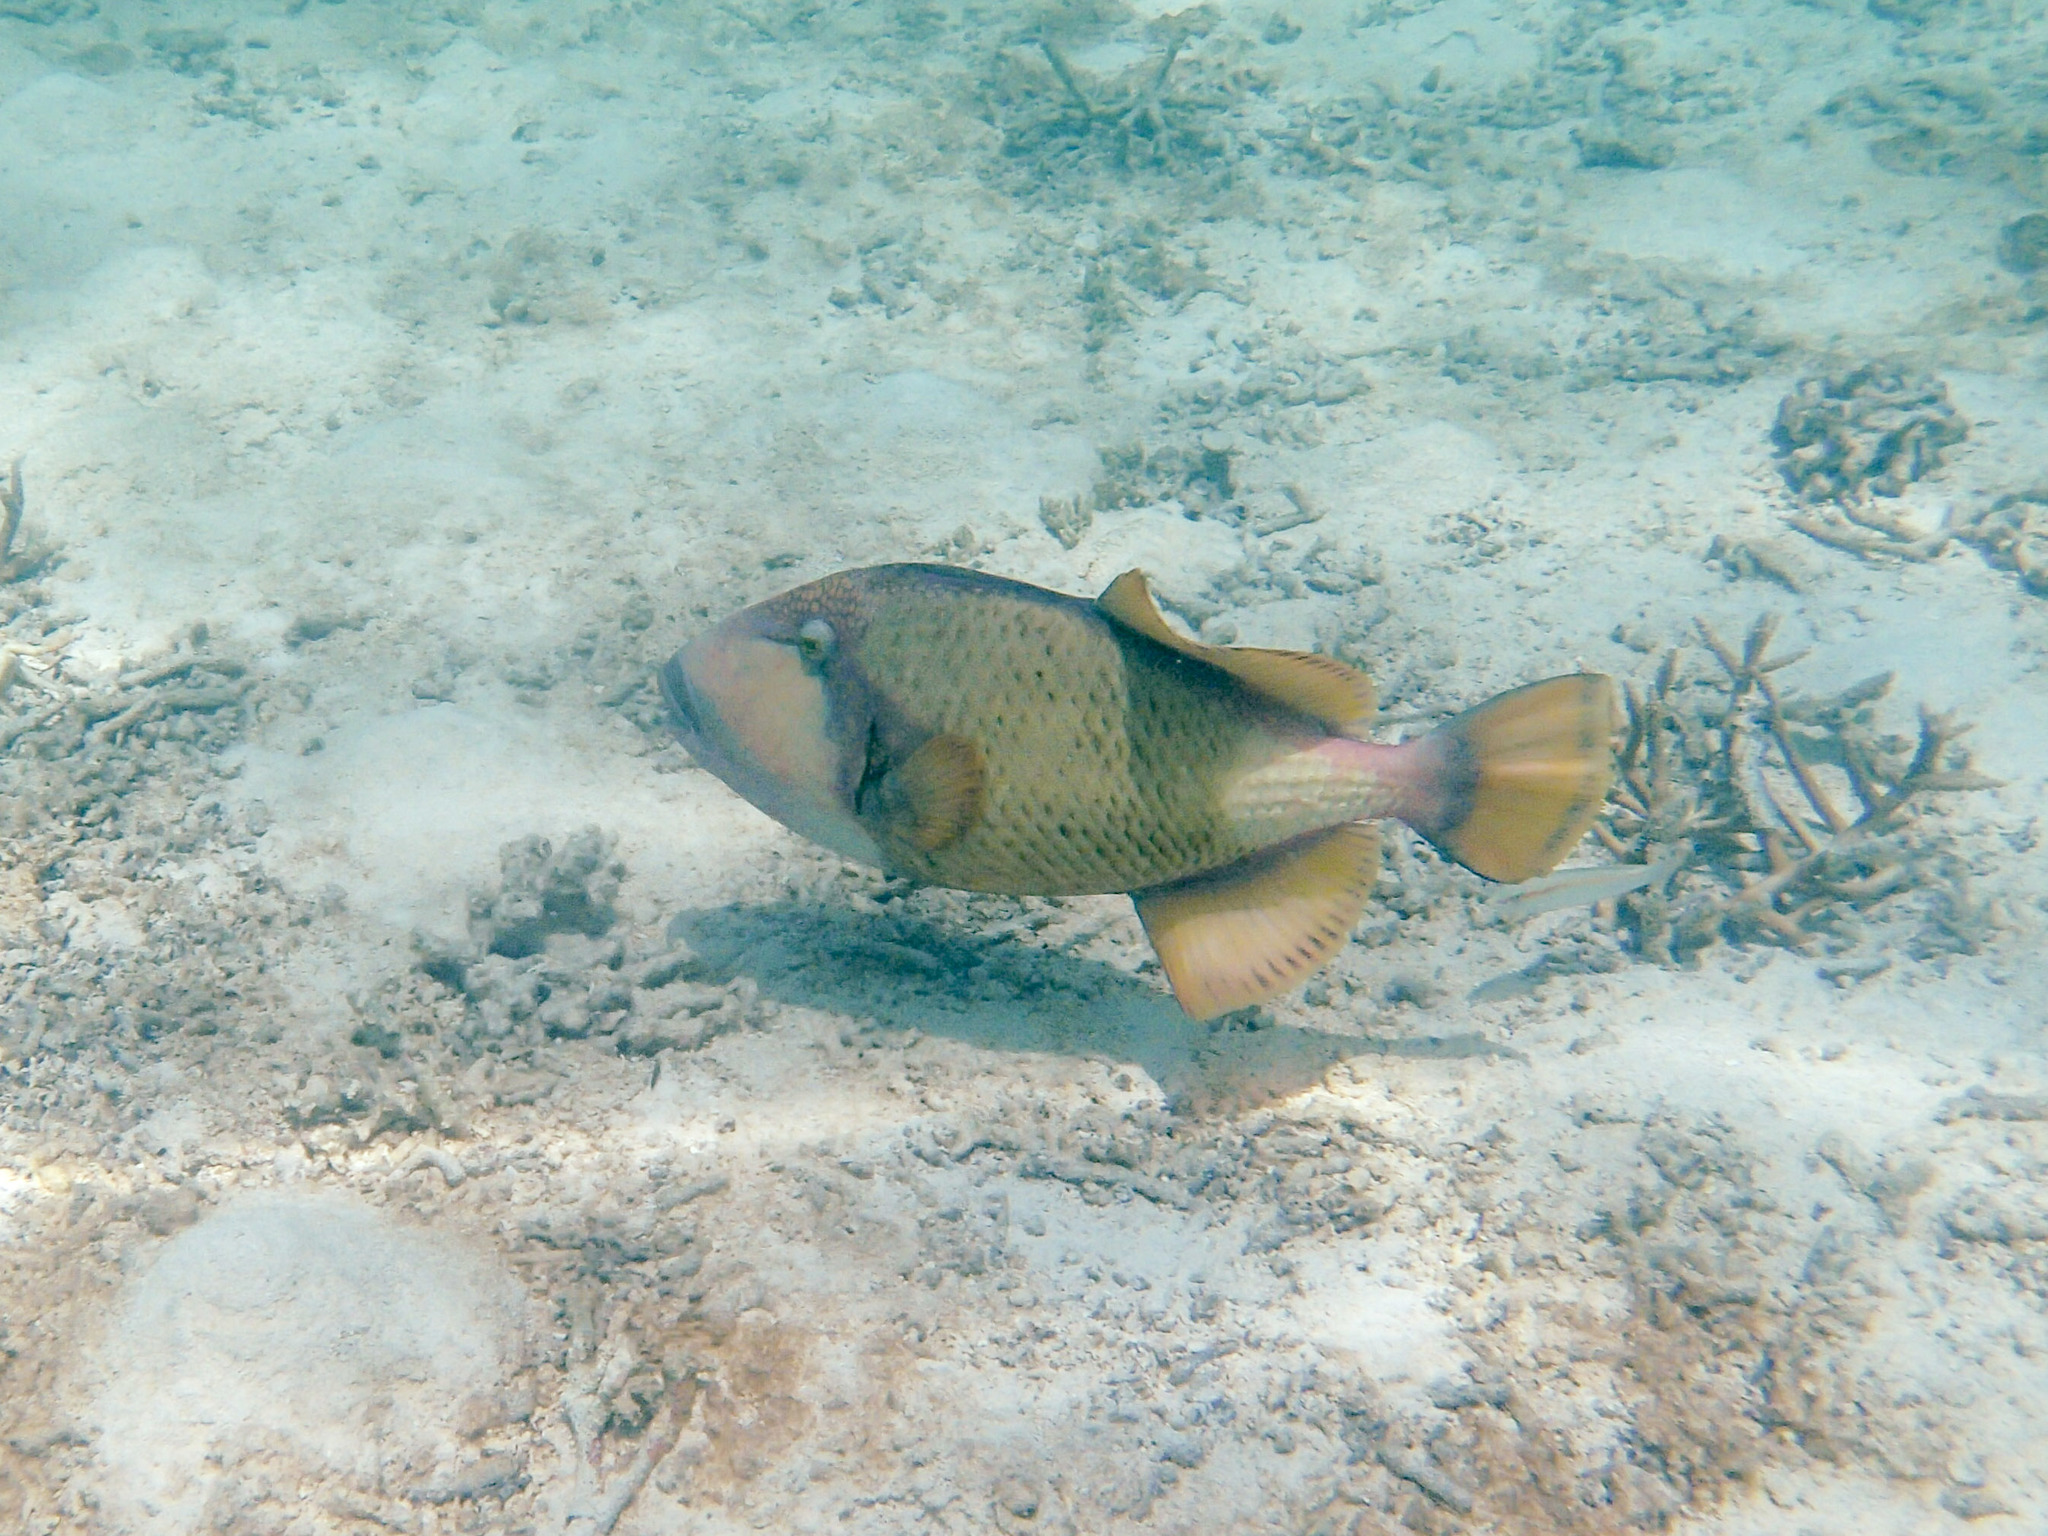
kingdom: Animalia
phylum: Chordata
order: Tetraodontiformes
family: Balistidae
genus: Balistoides
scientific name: Balistoides viridescens
